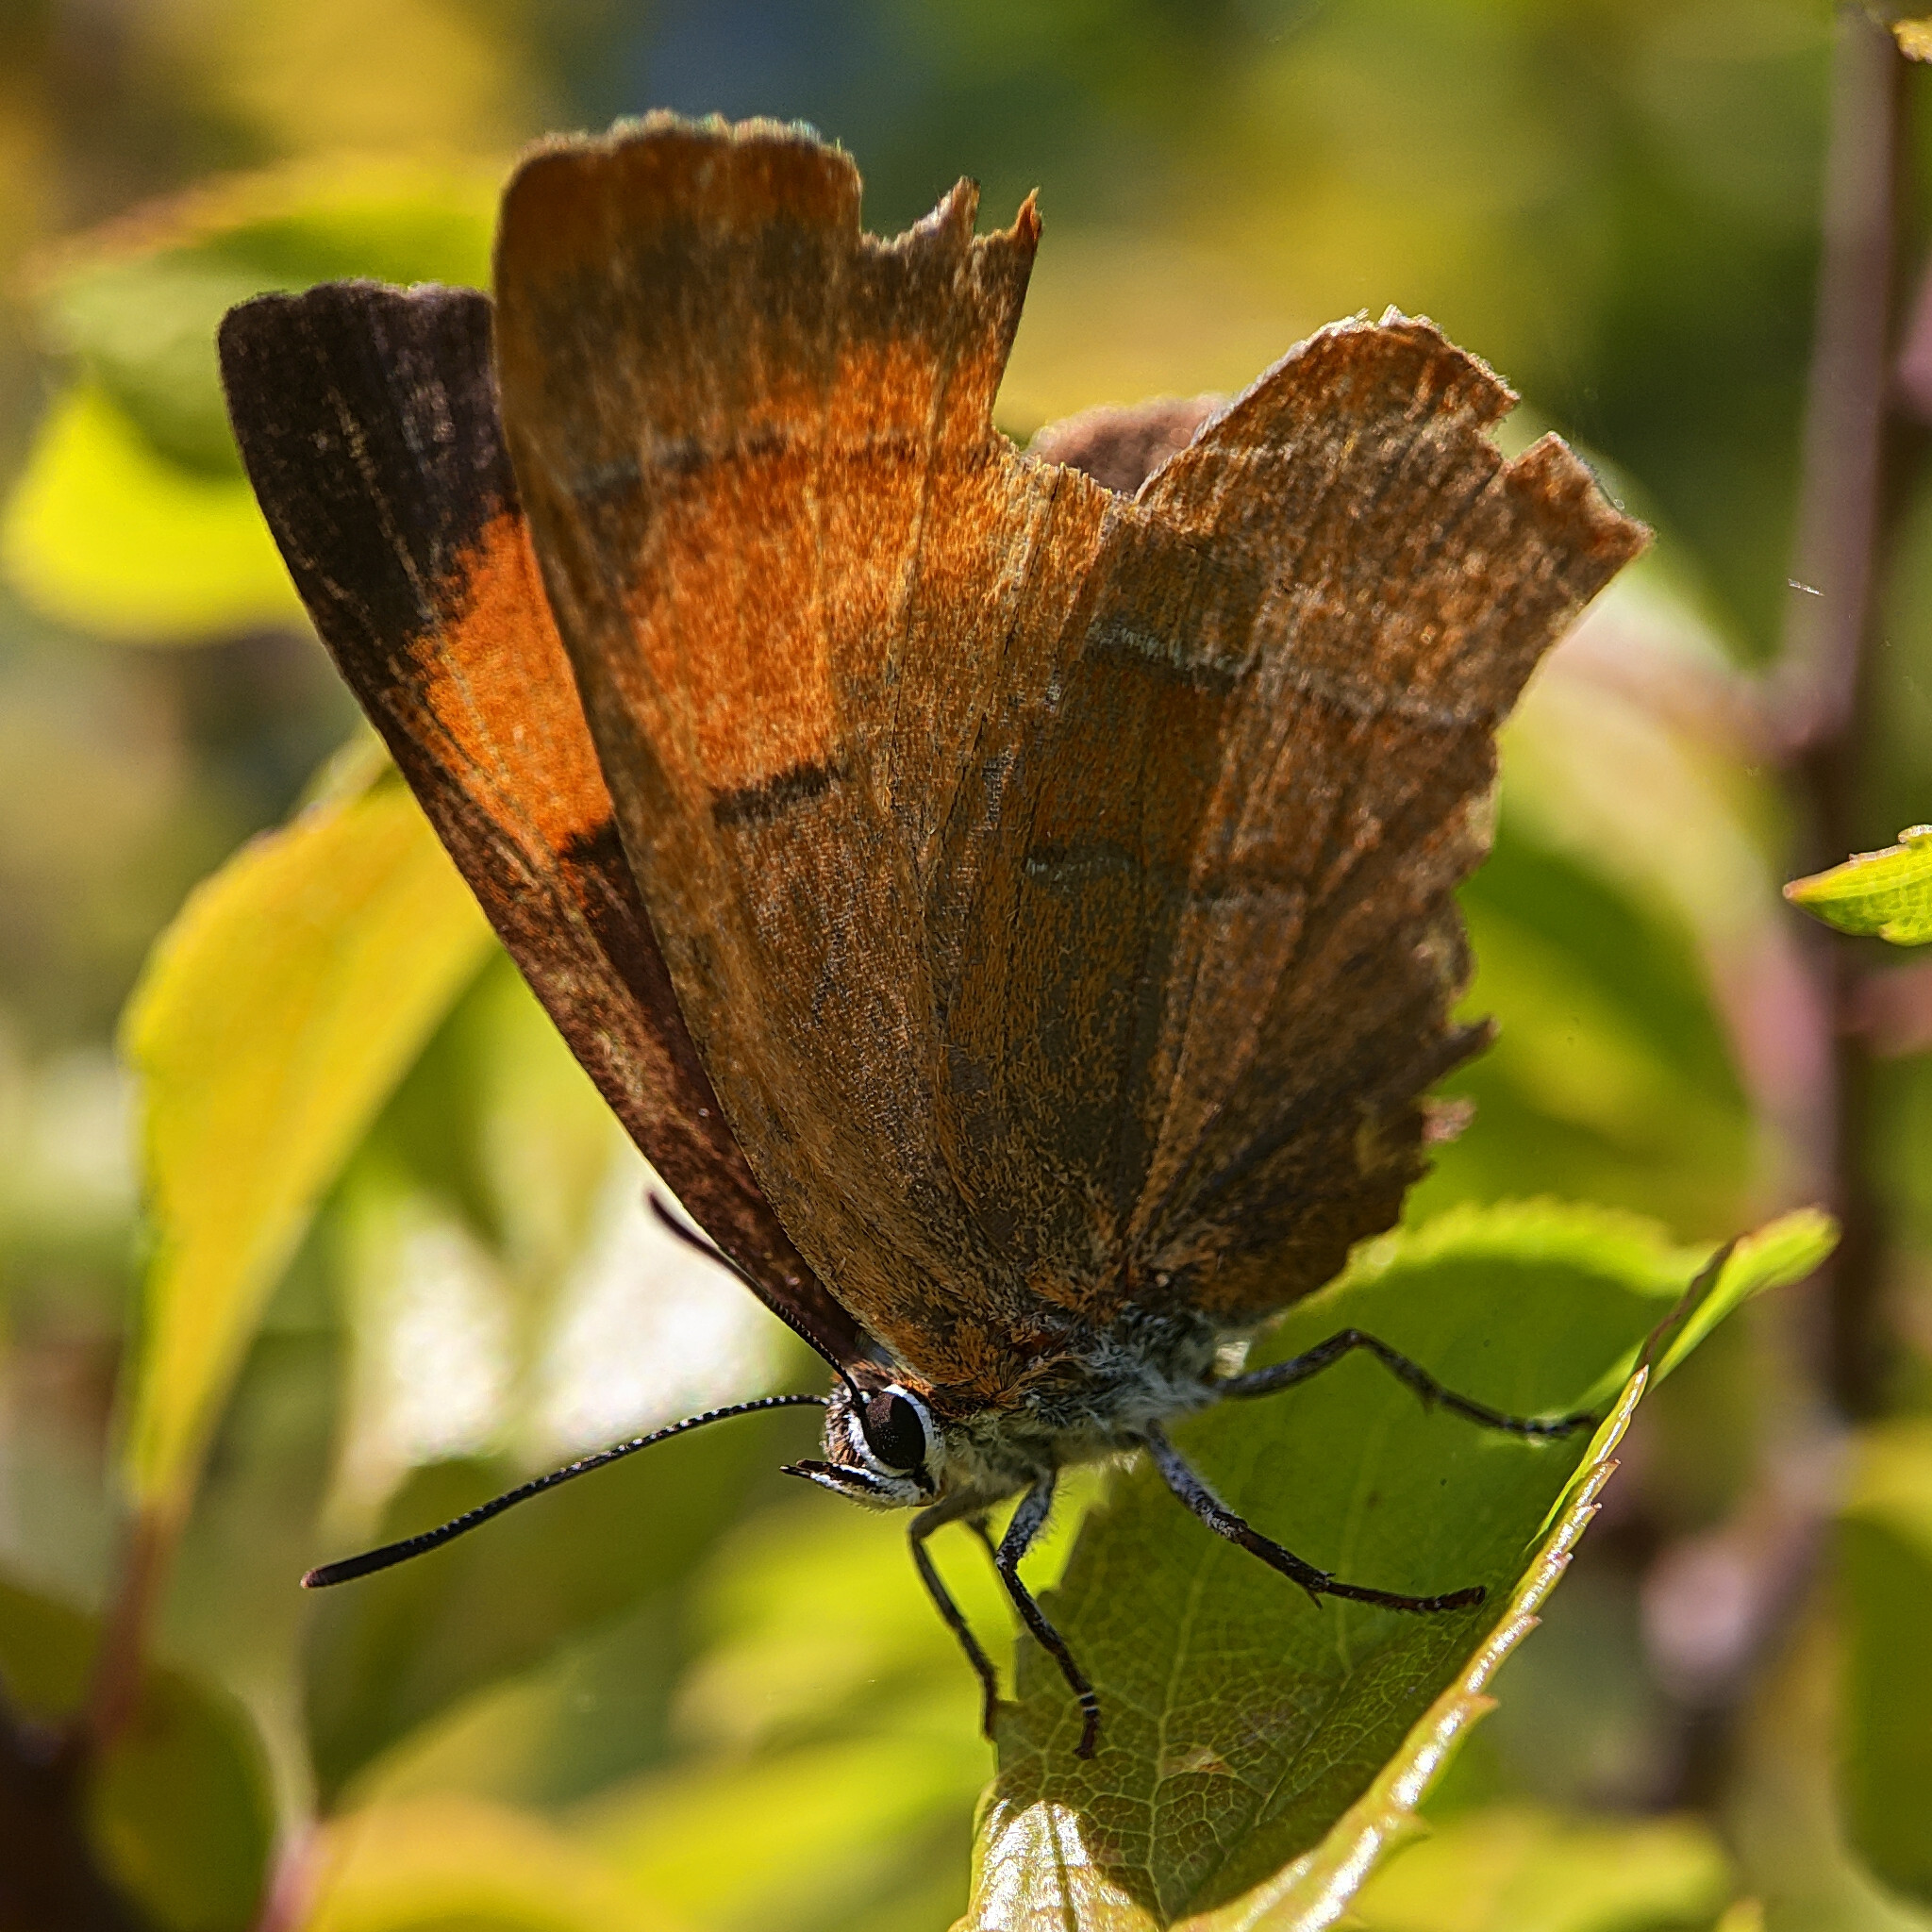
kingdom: Animalia
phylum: Arthropoda
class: Insecta
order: Lepidoptera
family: Lycaenidae
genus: Thecla
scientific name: Thecla betulae
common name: Brown hairstreak
